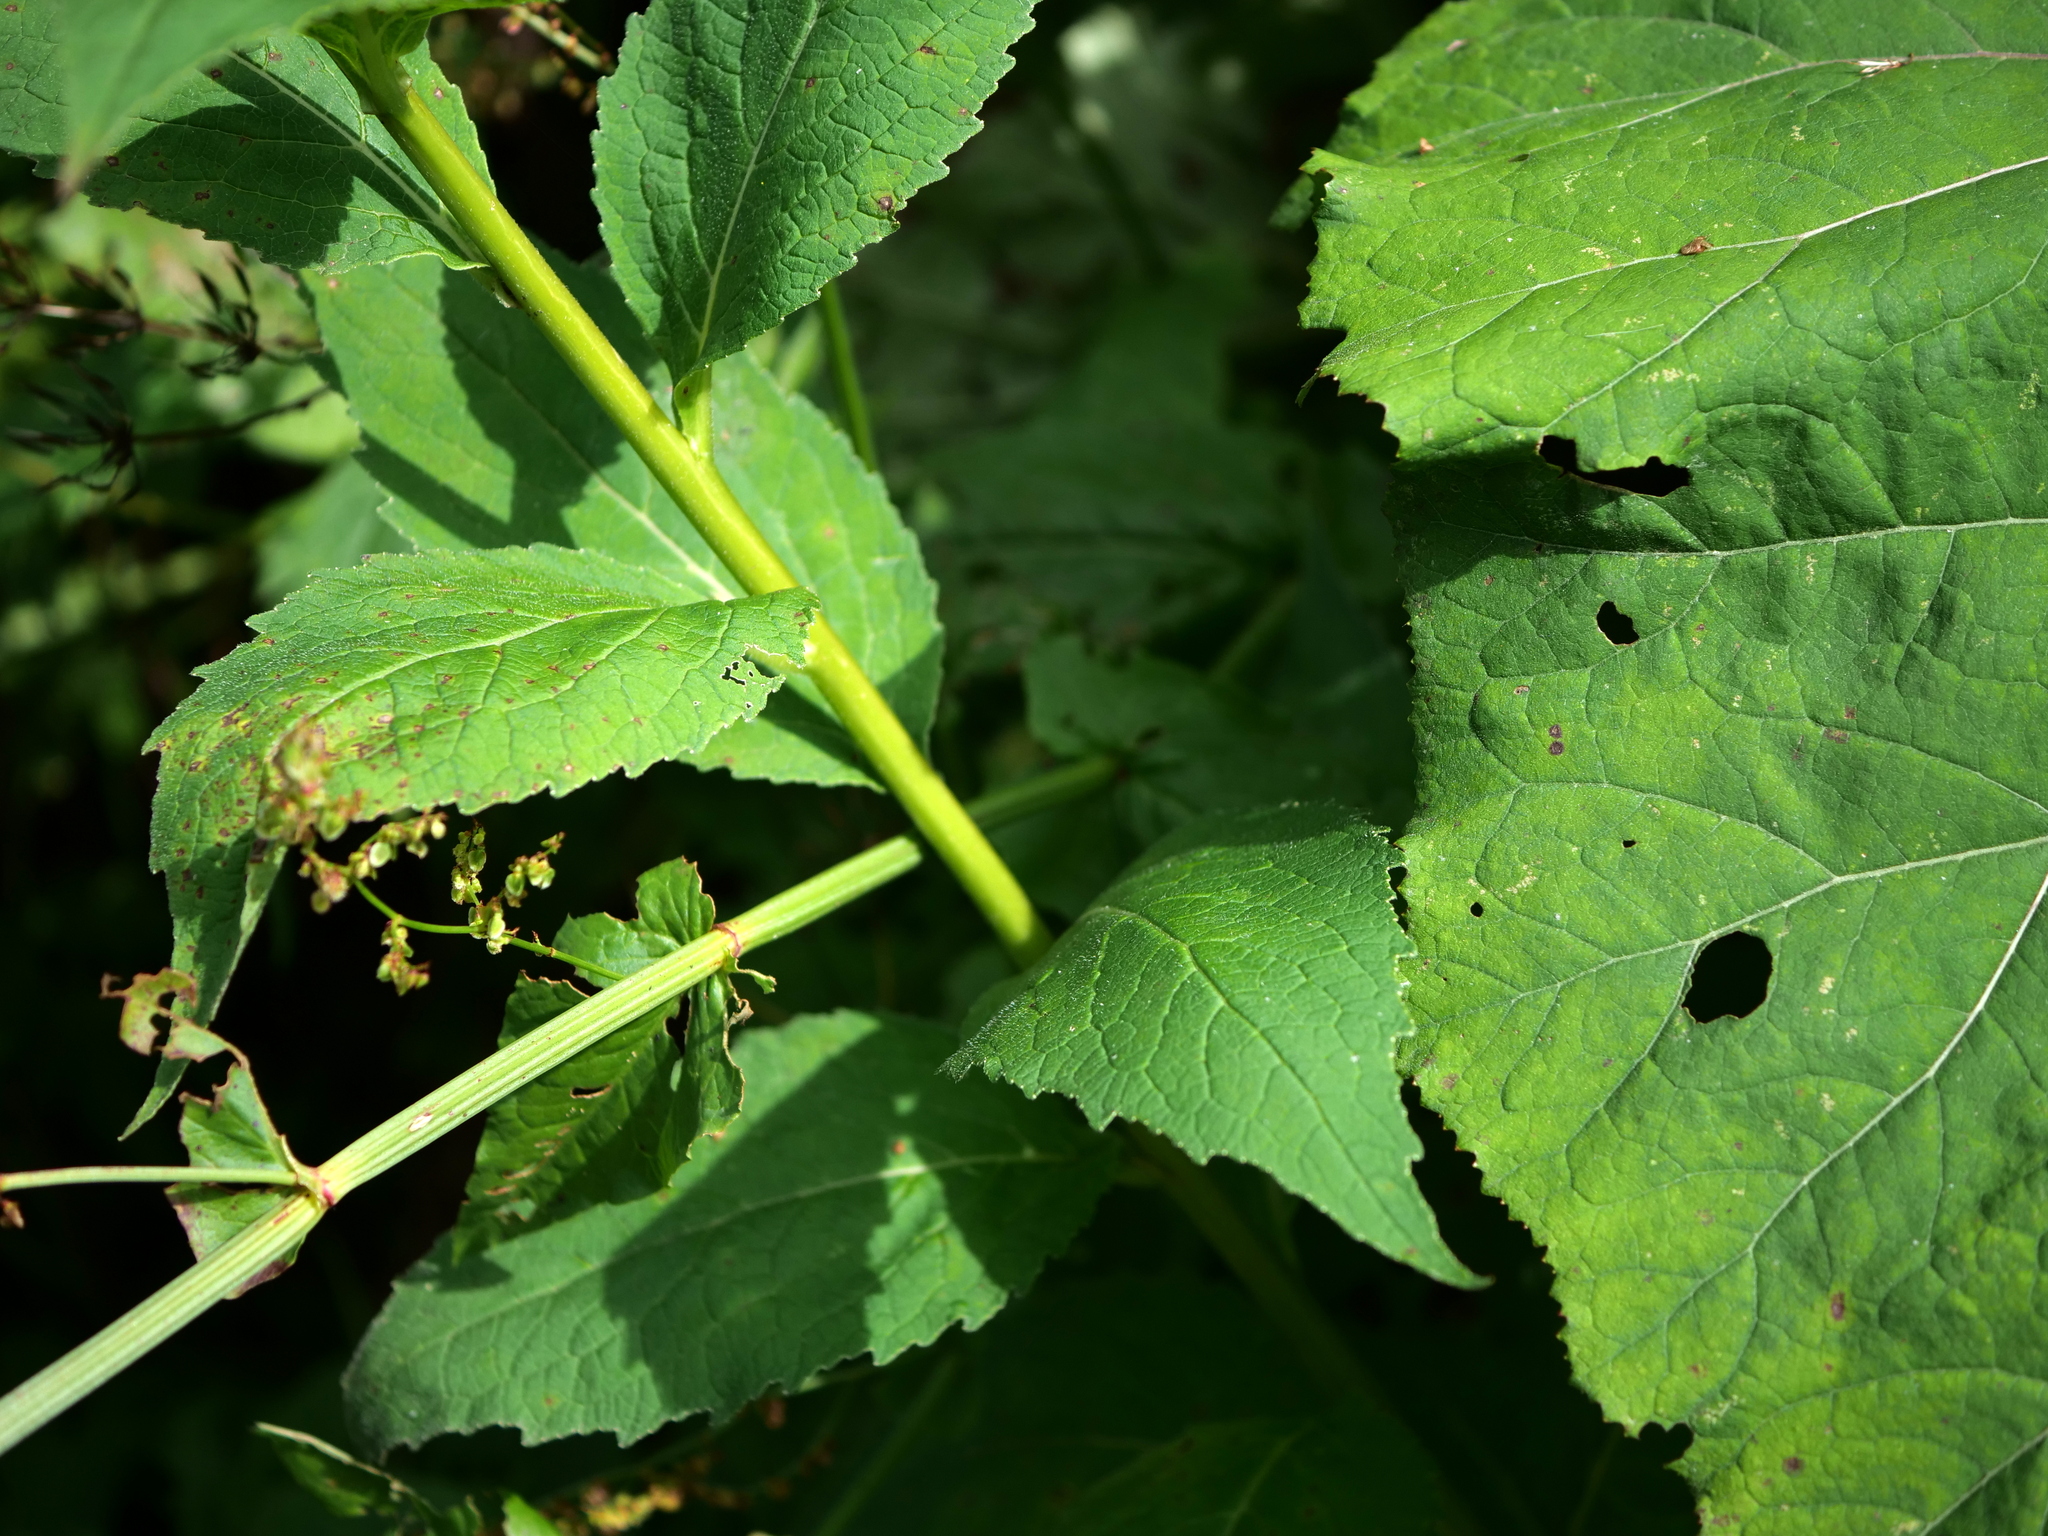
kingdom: Plantae
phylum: Tracheophyta
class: Magnoliopsida
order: Asterales
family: Campanulaceae
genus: Campanula
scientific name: Campanula latifolia
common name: Giant bellflower
